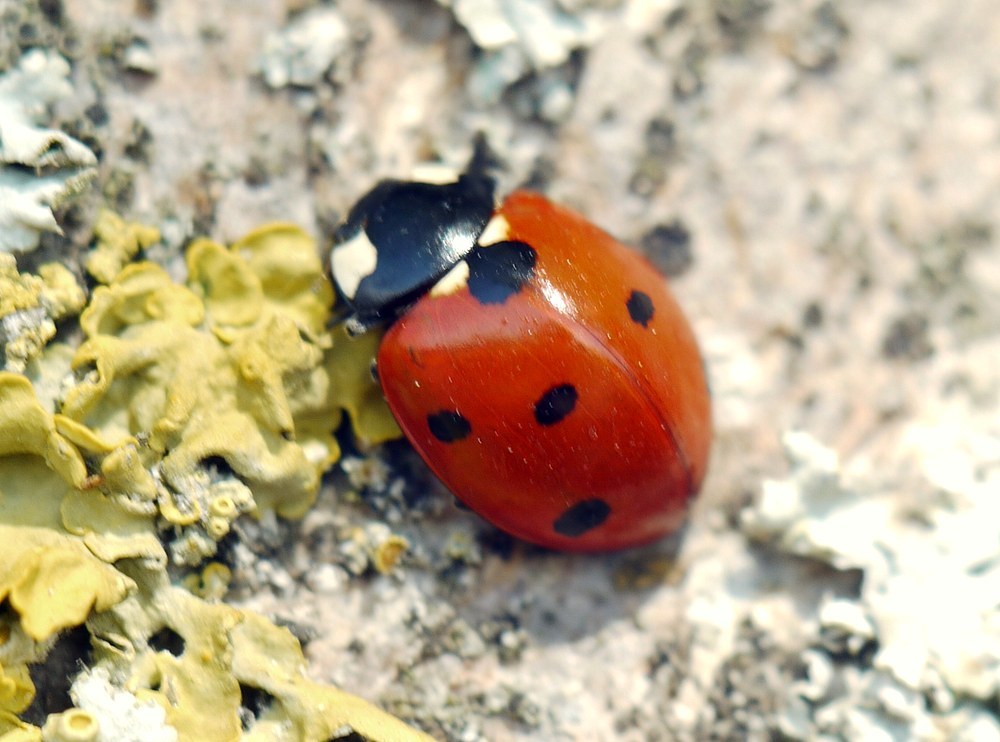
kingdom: Animalia
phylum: Arthropoda
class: Insecta
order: Coleoptera
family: Coccinellidae
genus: Coccinella
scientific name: Coccinella septempunctata
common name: Sevenspotted lady beetle
